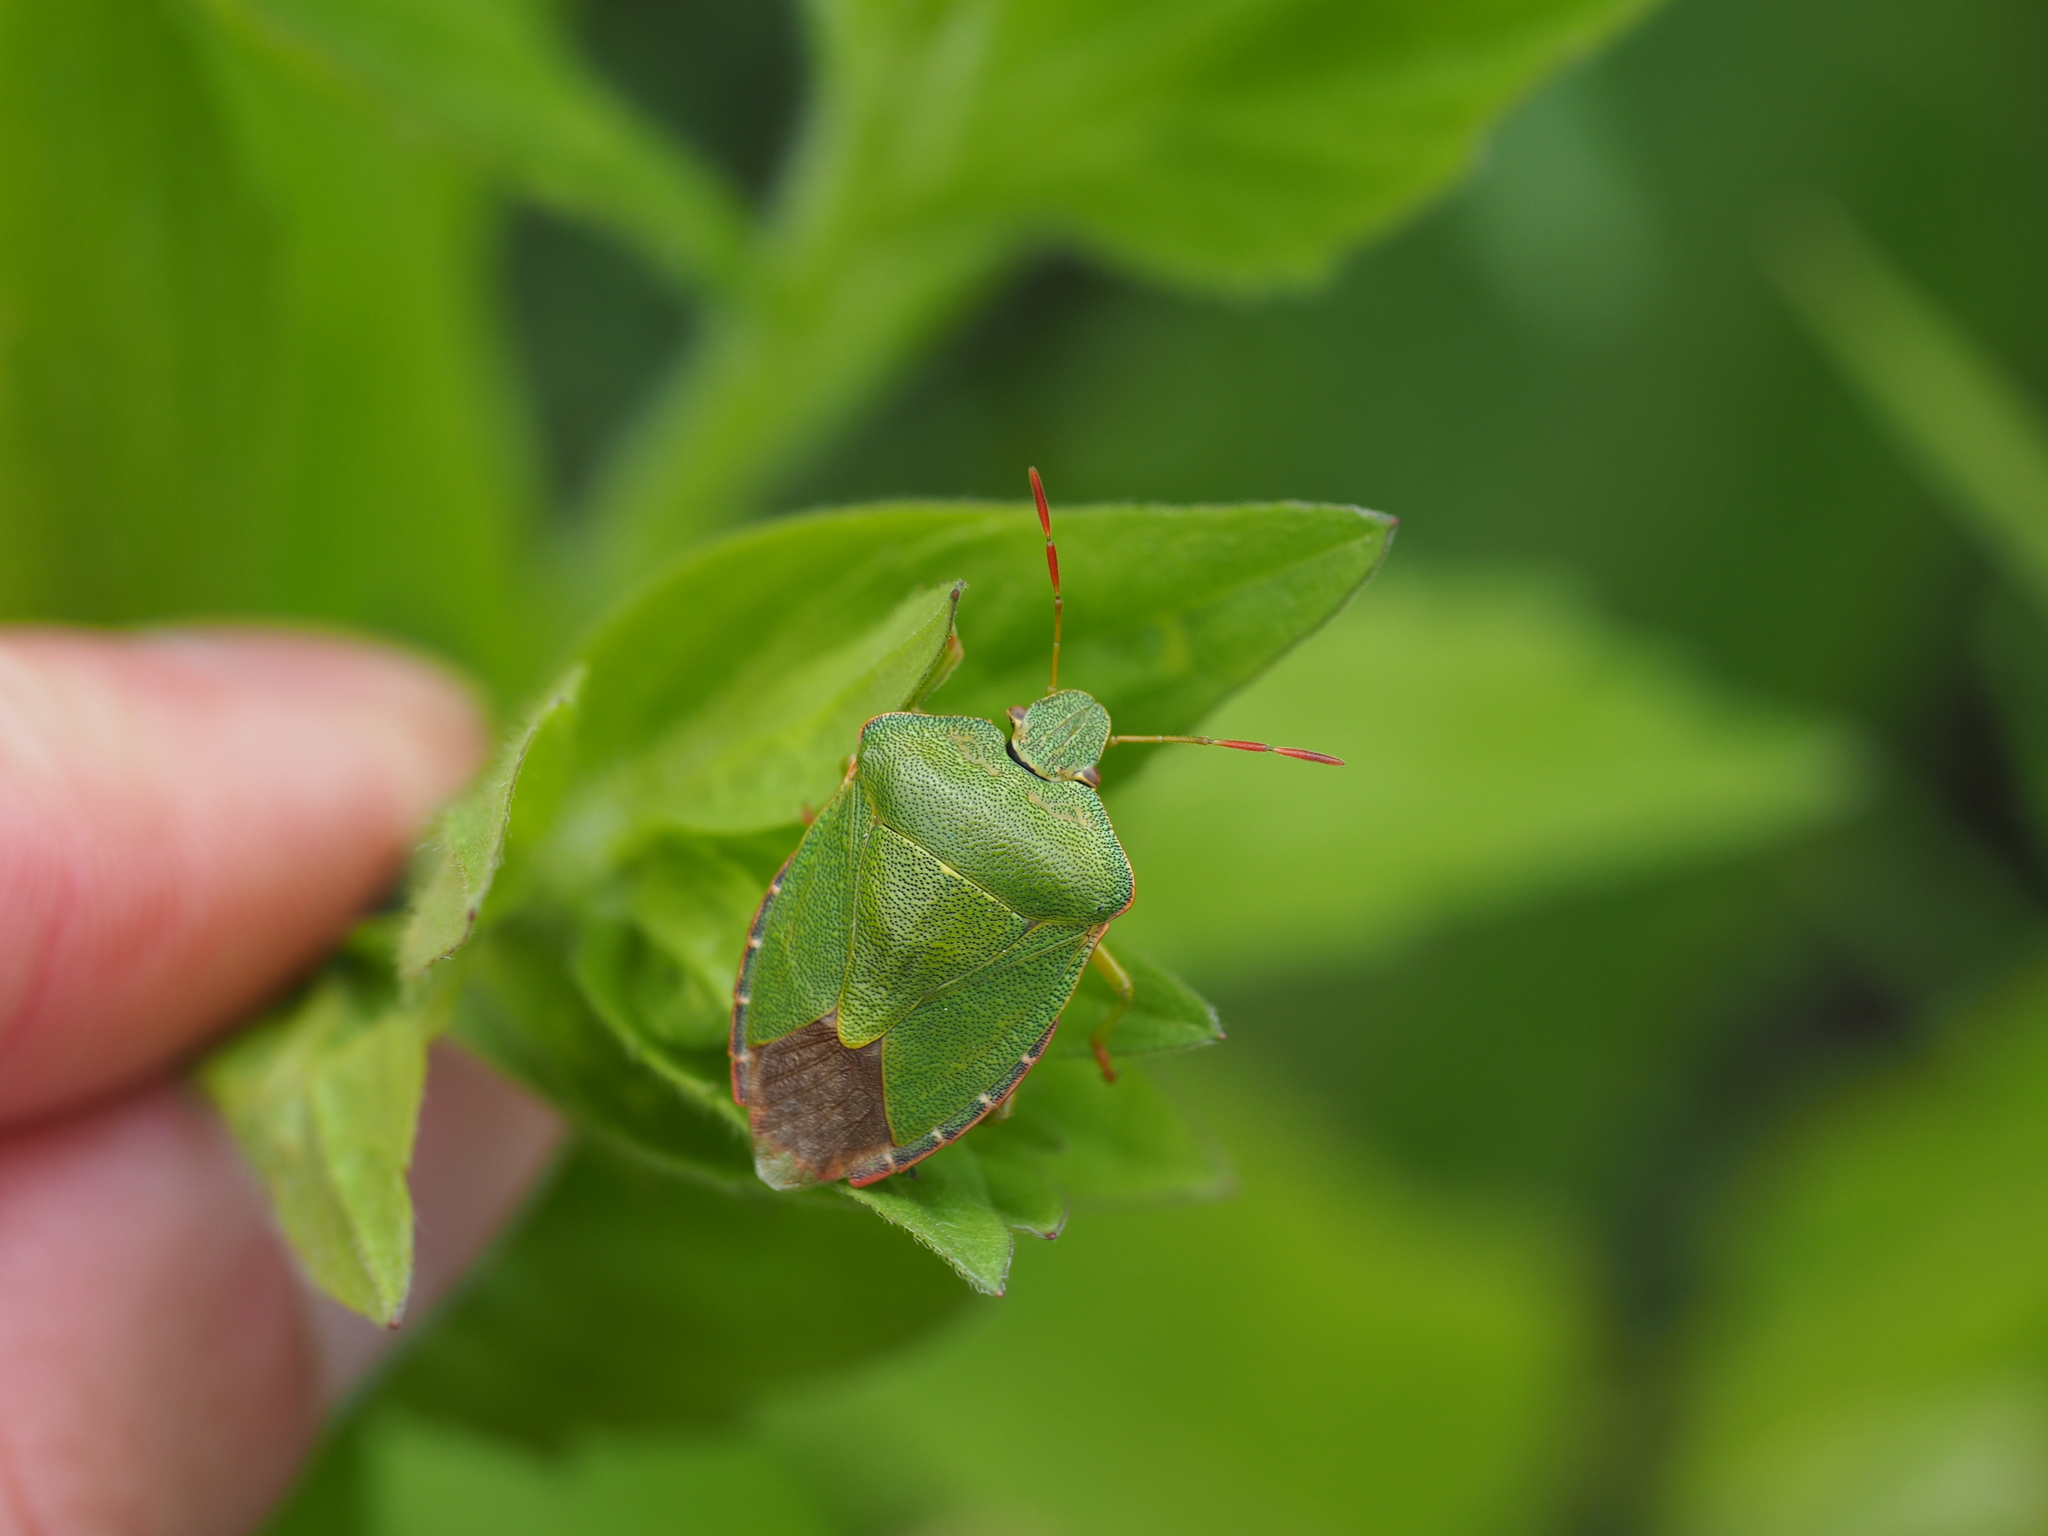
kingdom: Animalia
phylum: Arthropoda
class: Insecta
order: Hemiptera
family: Pentatomidae
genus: Palomena
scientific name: Palomena prasina
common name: Green shieldbug
